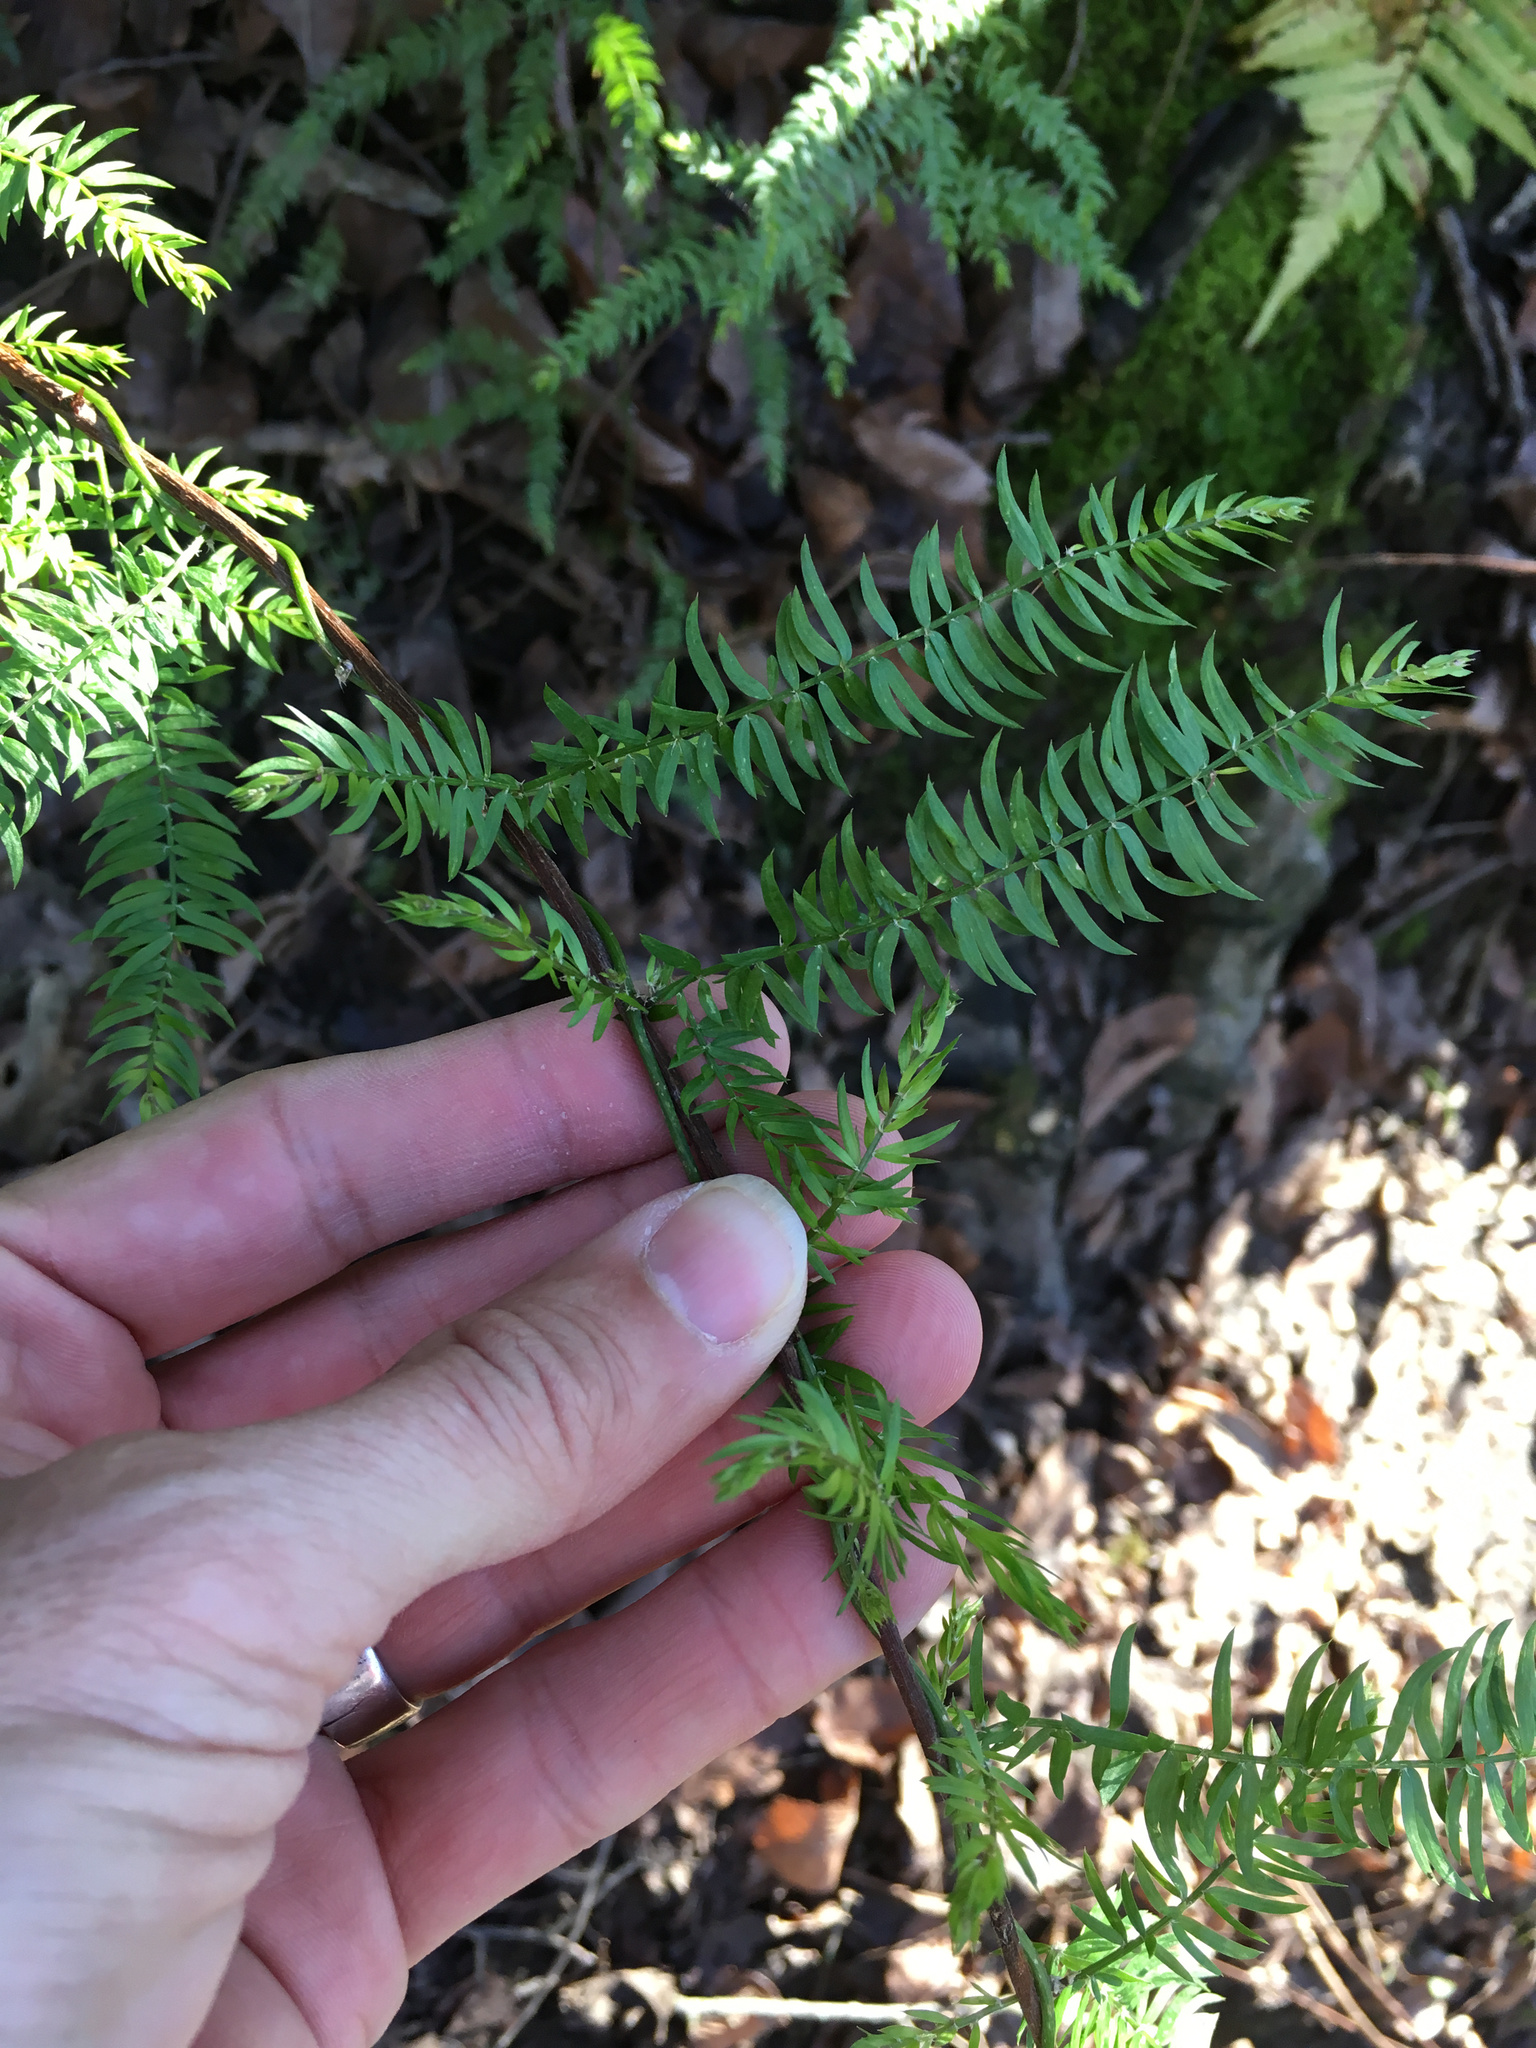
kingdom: Plantae
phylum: Tracheophyta
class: Liliopsida
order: Asparagales
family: Asparagaceae
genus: Asparagus
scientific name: Asparagus scandens
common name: Asparagus-fern
